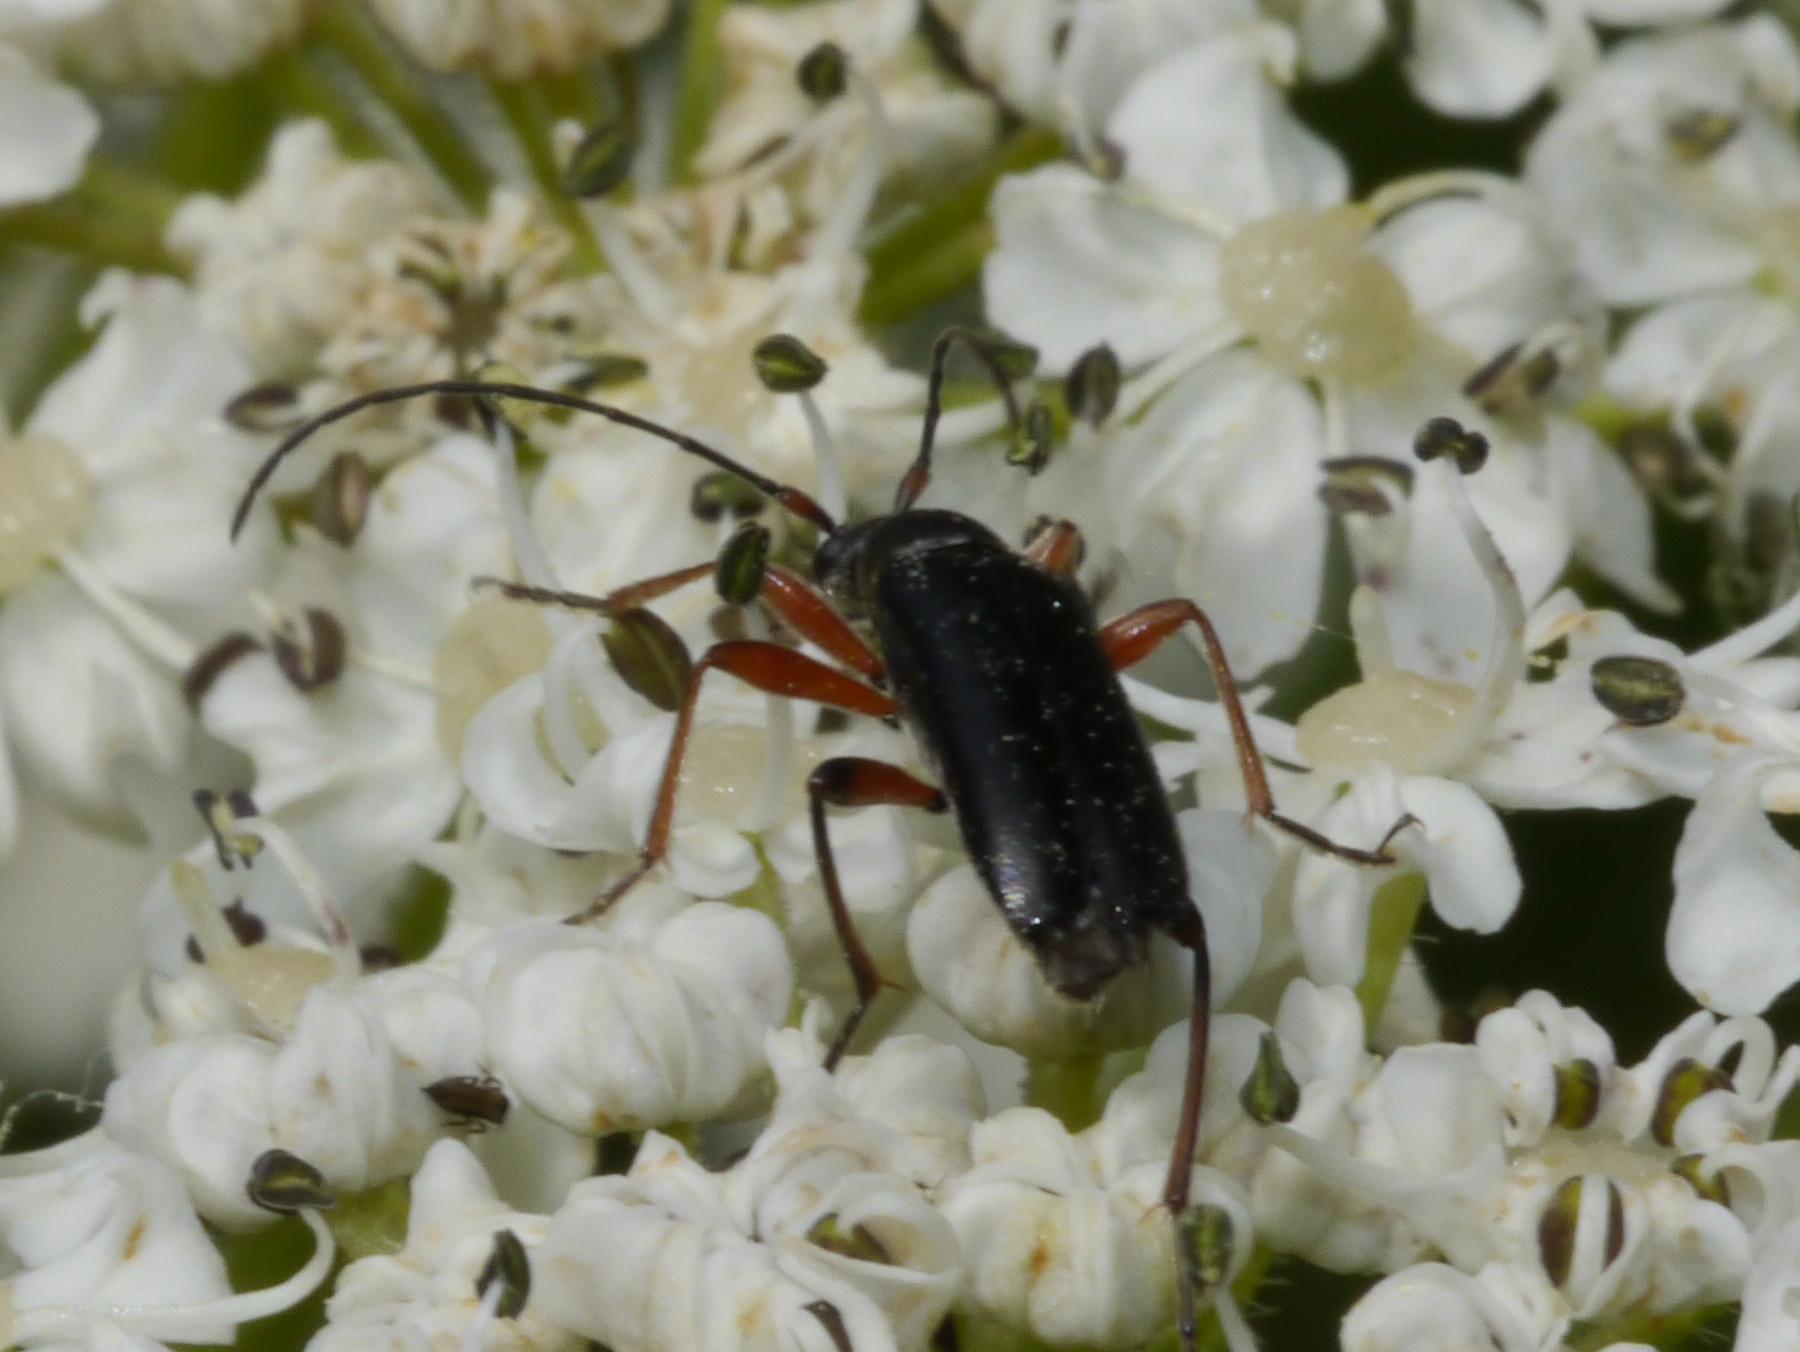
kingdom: Animalia
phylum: Arthropoda
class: Insecta
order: Coleoptera
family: Cerambycidae
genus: Grammoptera
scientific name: Grammoptera subargentata
